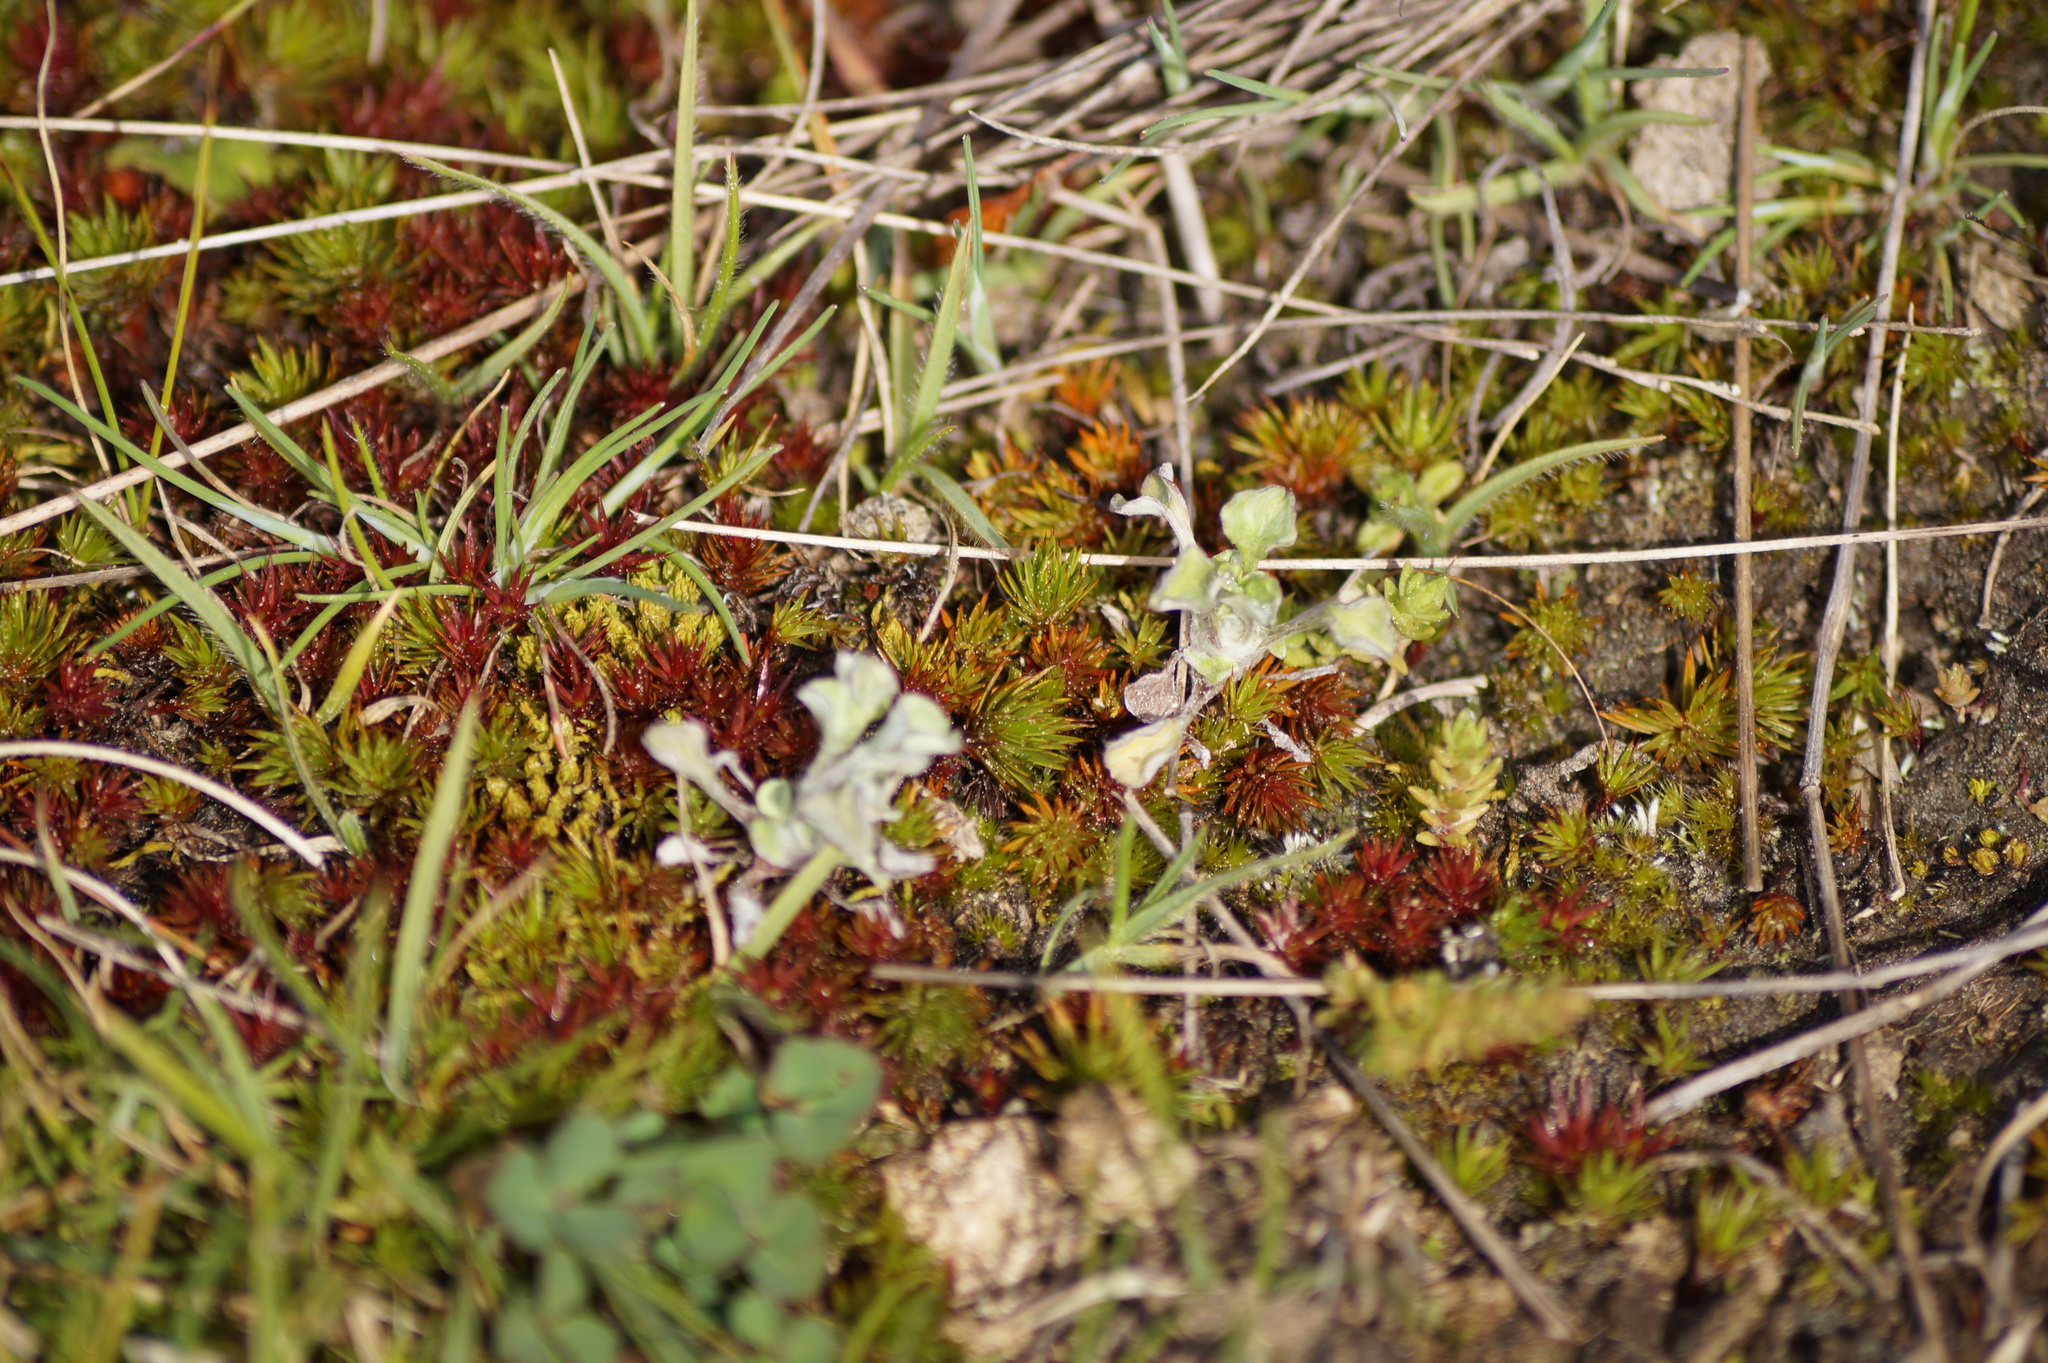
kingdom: Plantae
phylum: Tracheophyta
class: Magnoliopsida
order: Asterales
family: Asteraceae
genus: Stuartina
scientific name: Stuartina muelleri
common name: Spoon-leaved cudweed
